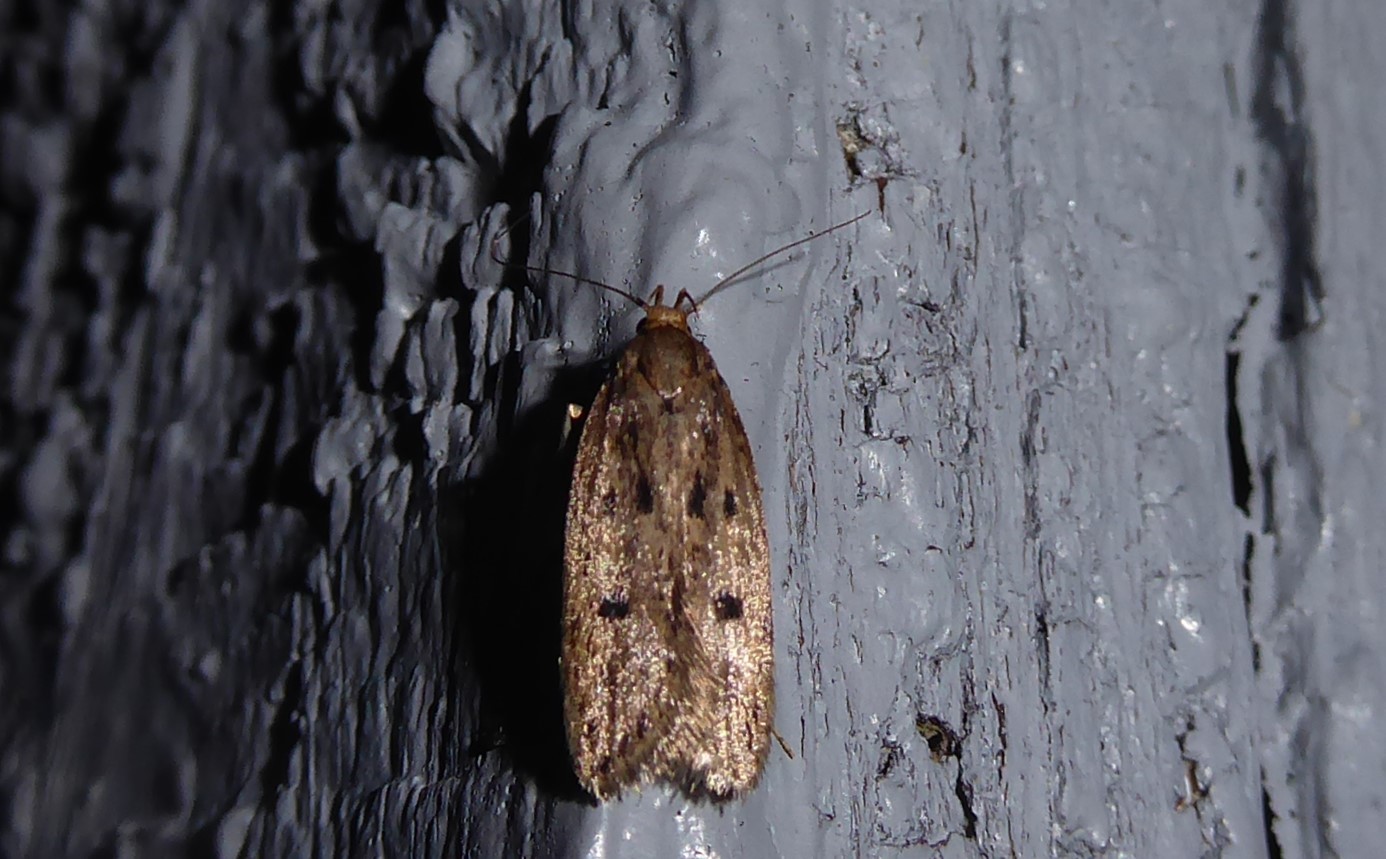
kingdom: Animalia
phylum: Arthropoda
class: Insecta
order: Lepidoptera
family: Oecophoridae
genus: Hofmannophila
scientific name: Hofmannophila pseudospretella
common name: Brown house moth
